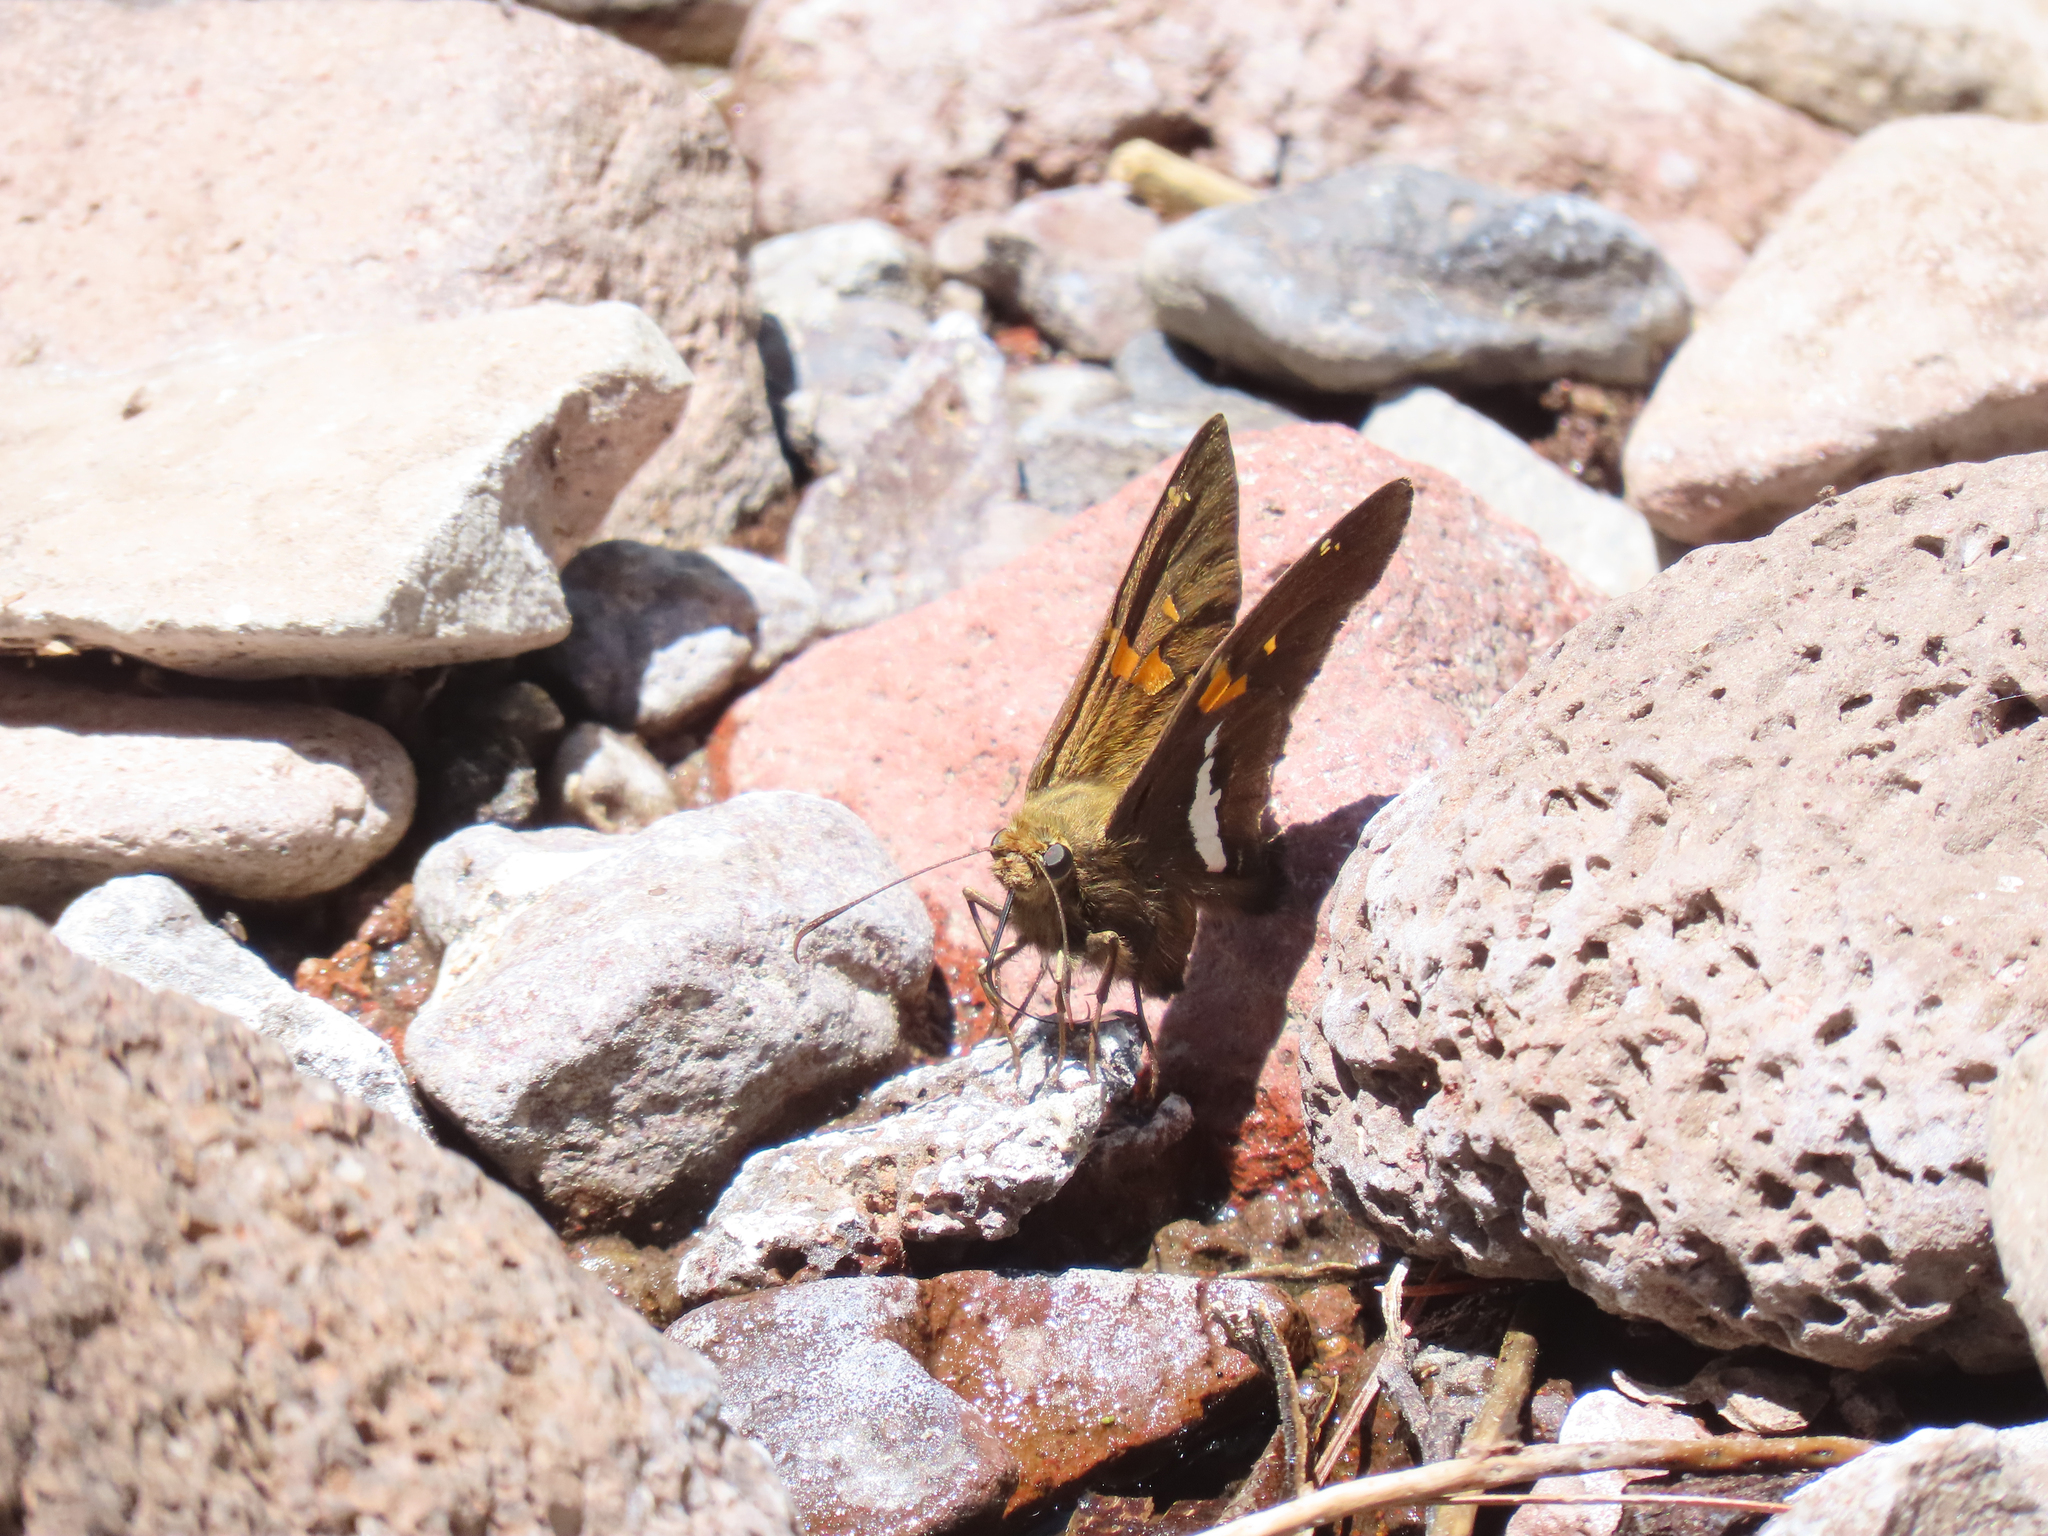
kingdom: Animalia
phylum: Arthropoda
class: Insecta
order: Lepidoptera
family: Hesperiidae
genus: Epargyreus
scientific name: Epargyreus clarus
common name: Silver-spotted skipper
